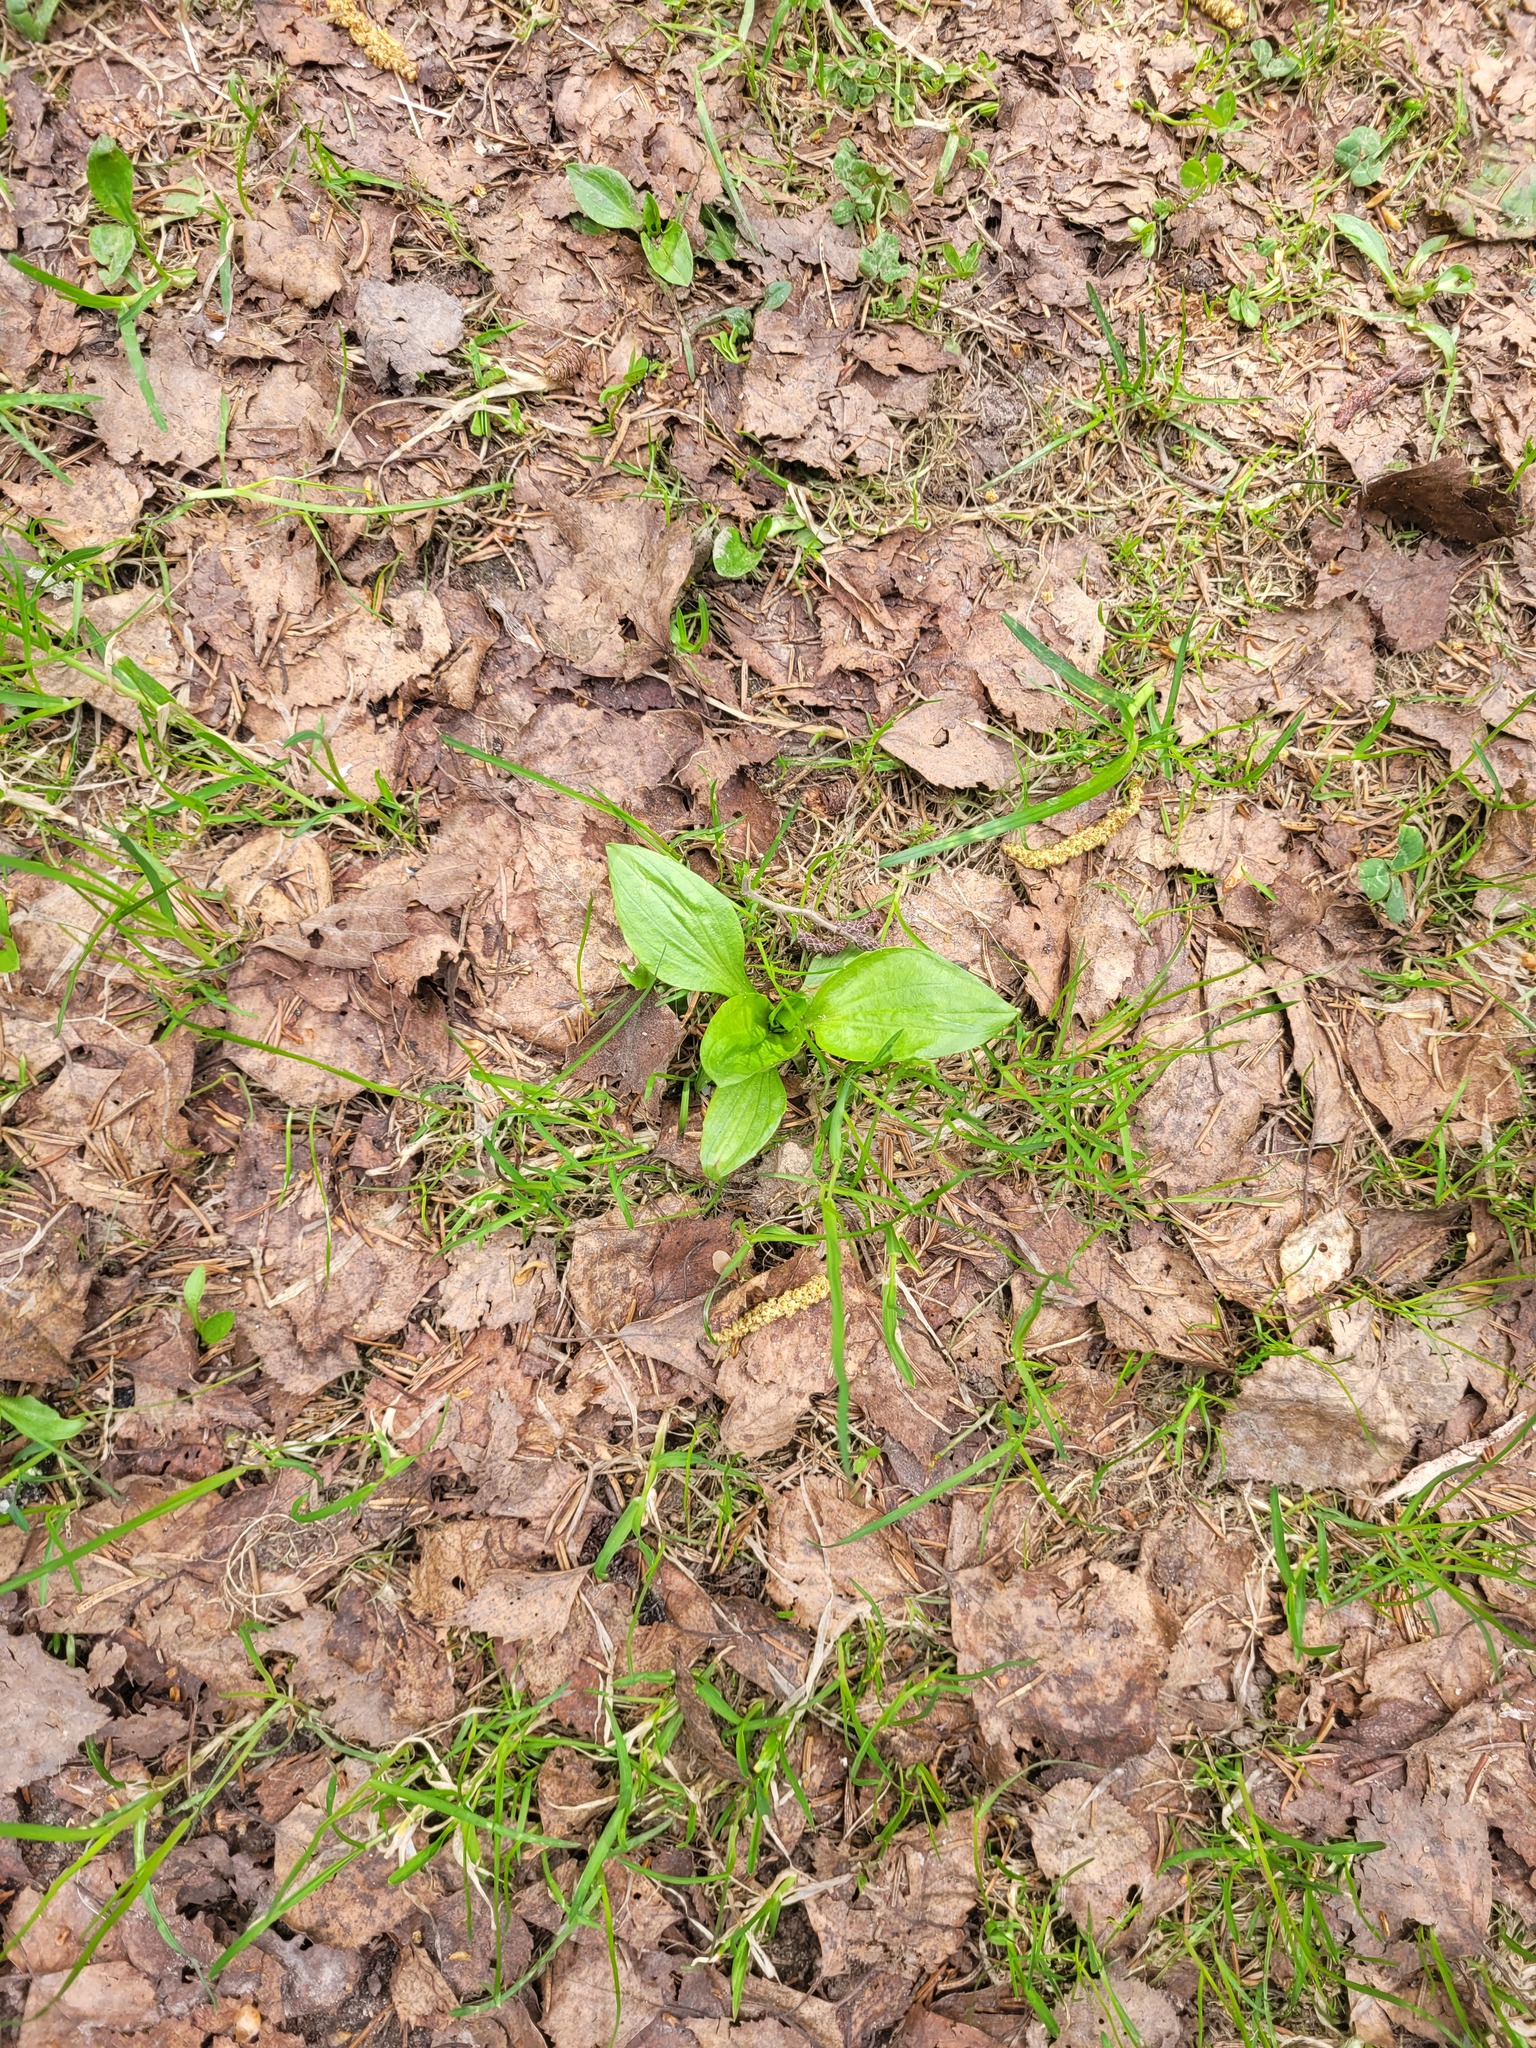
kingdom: Plantae
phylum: Tracheophyta
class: Magnoliopsida
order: Lamiales
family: Plantaginaceae
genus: Plantago
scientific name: Plantago major
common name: Common plantain
